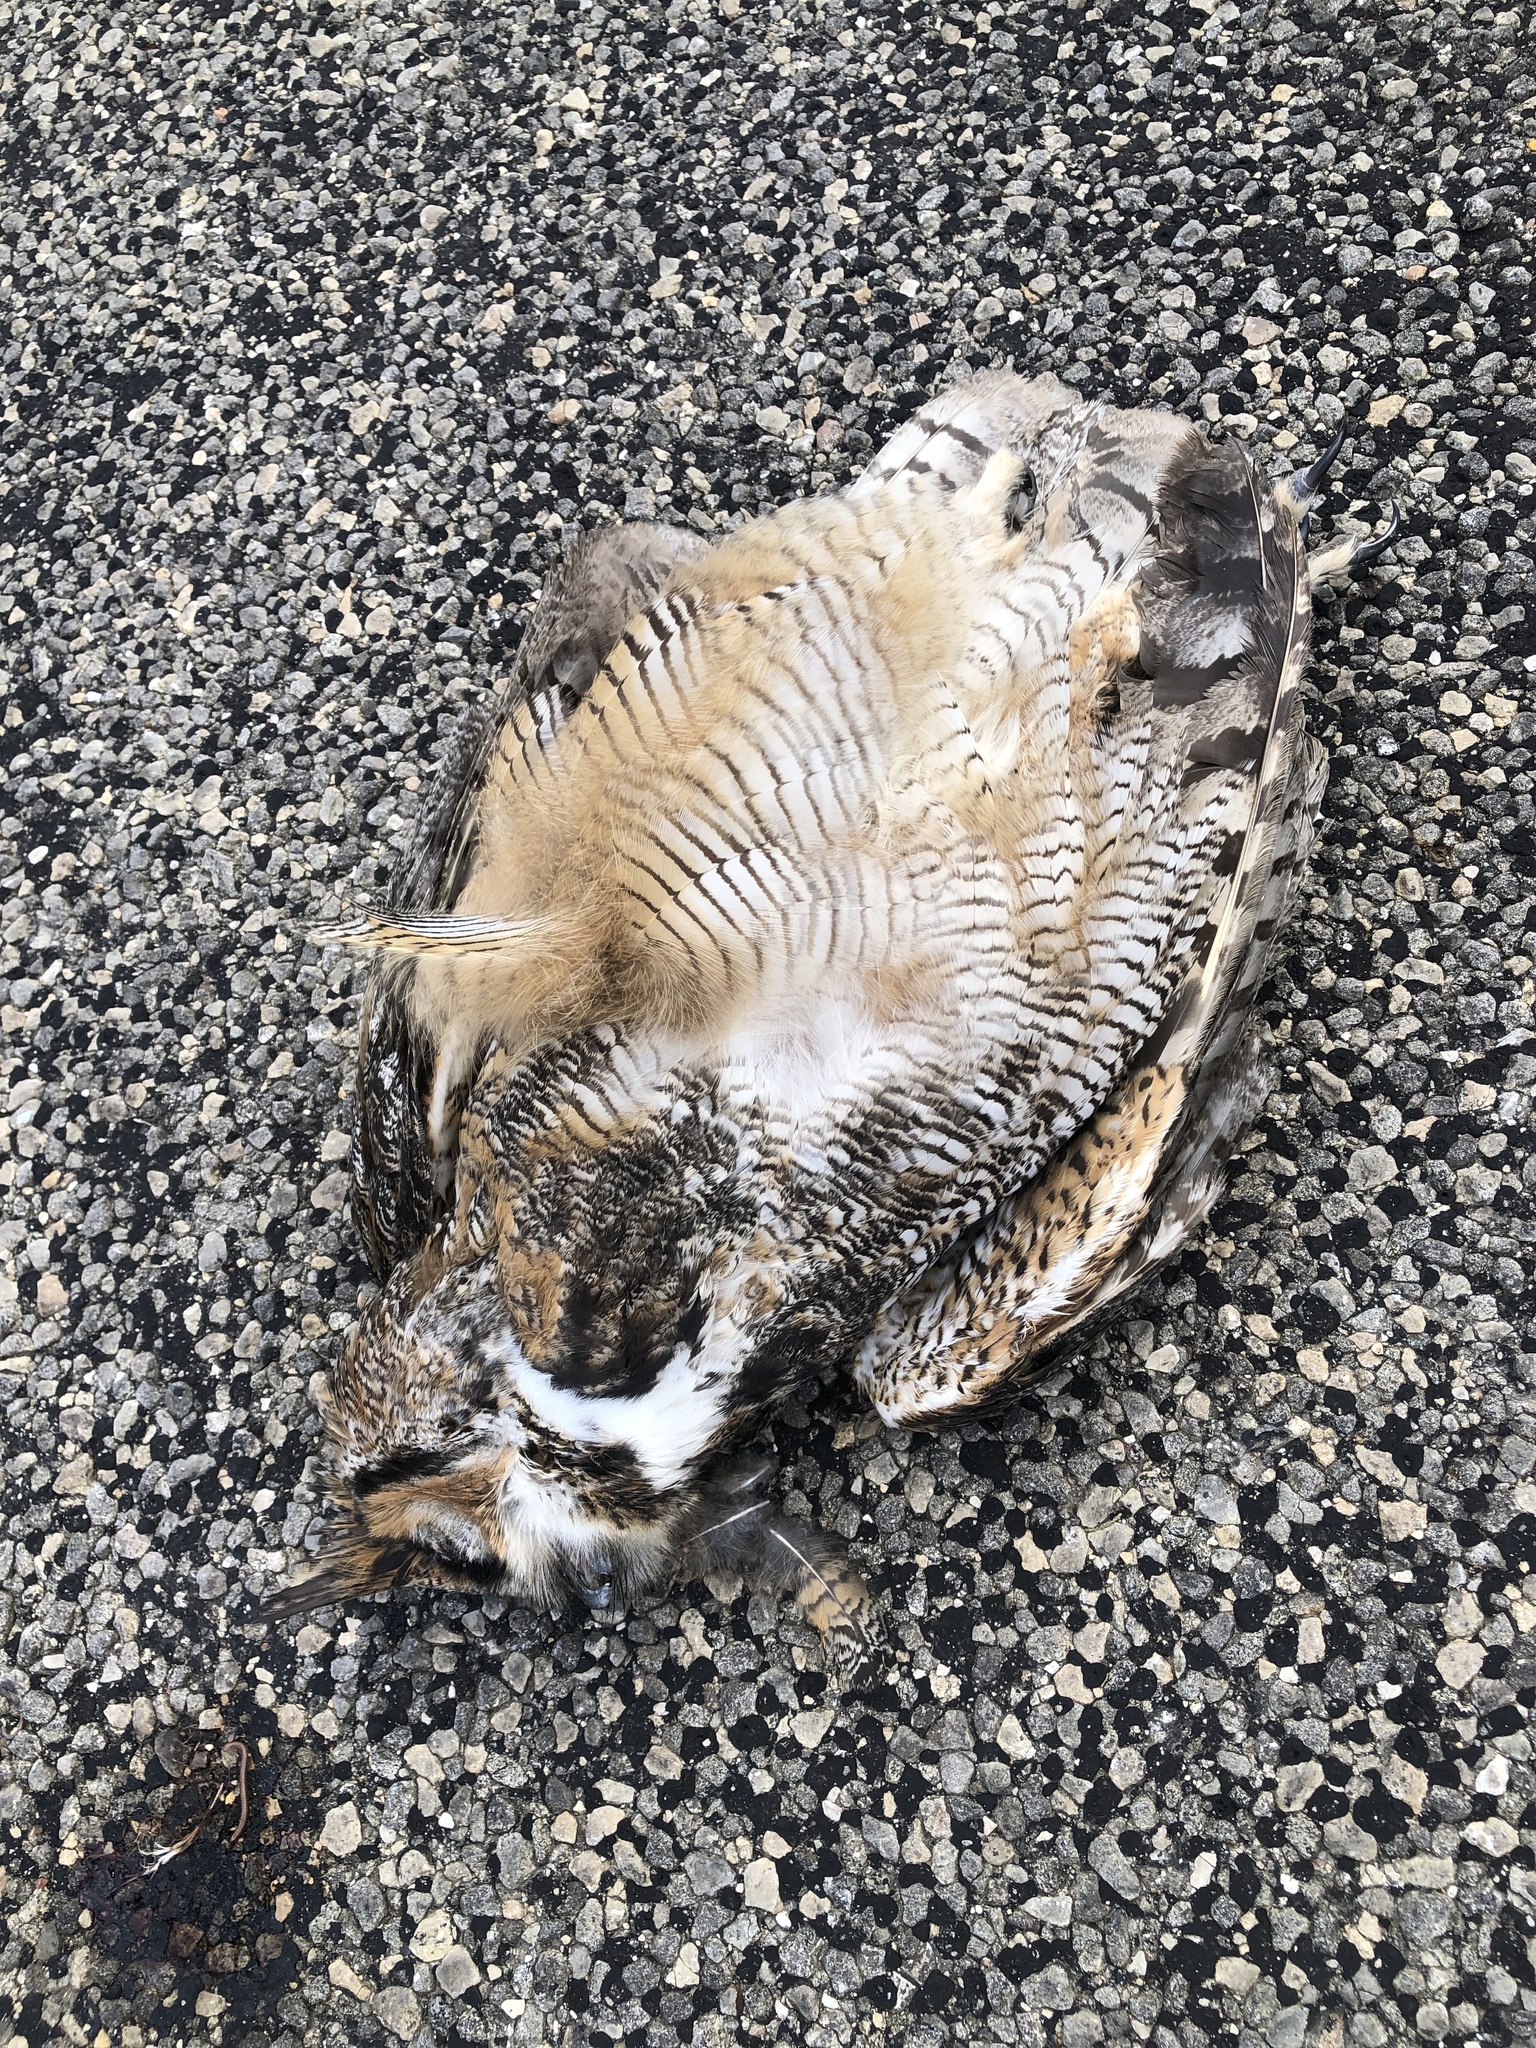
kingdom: Animalia
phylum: Chordata
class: Aves
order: Strigiformes
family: Strigidae
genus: Bubo
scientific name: Bubo virginianus
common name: Great horned owl
